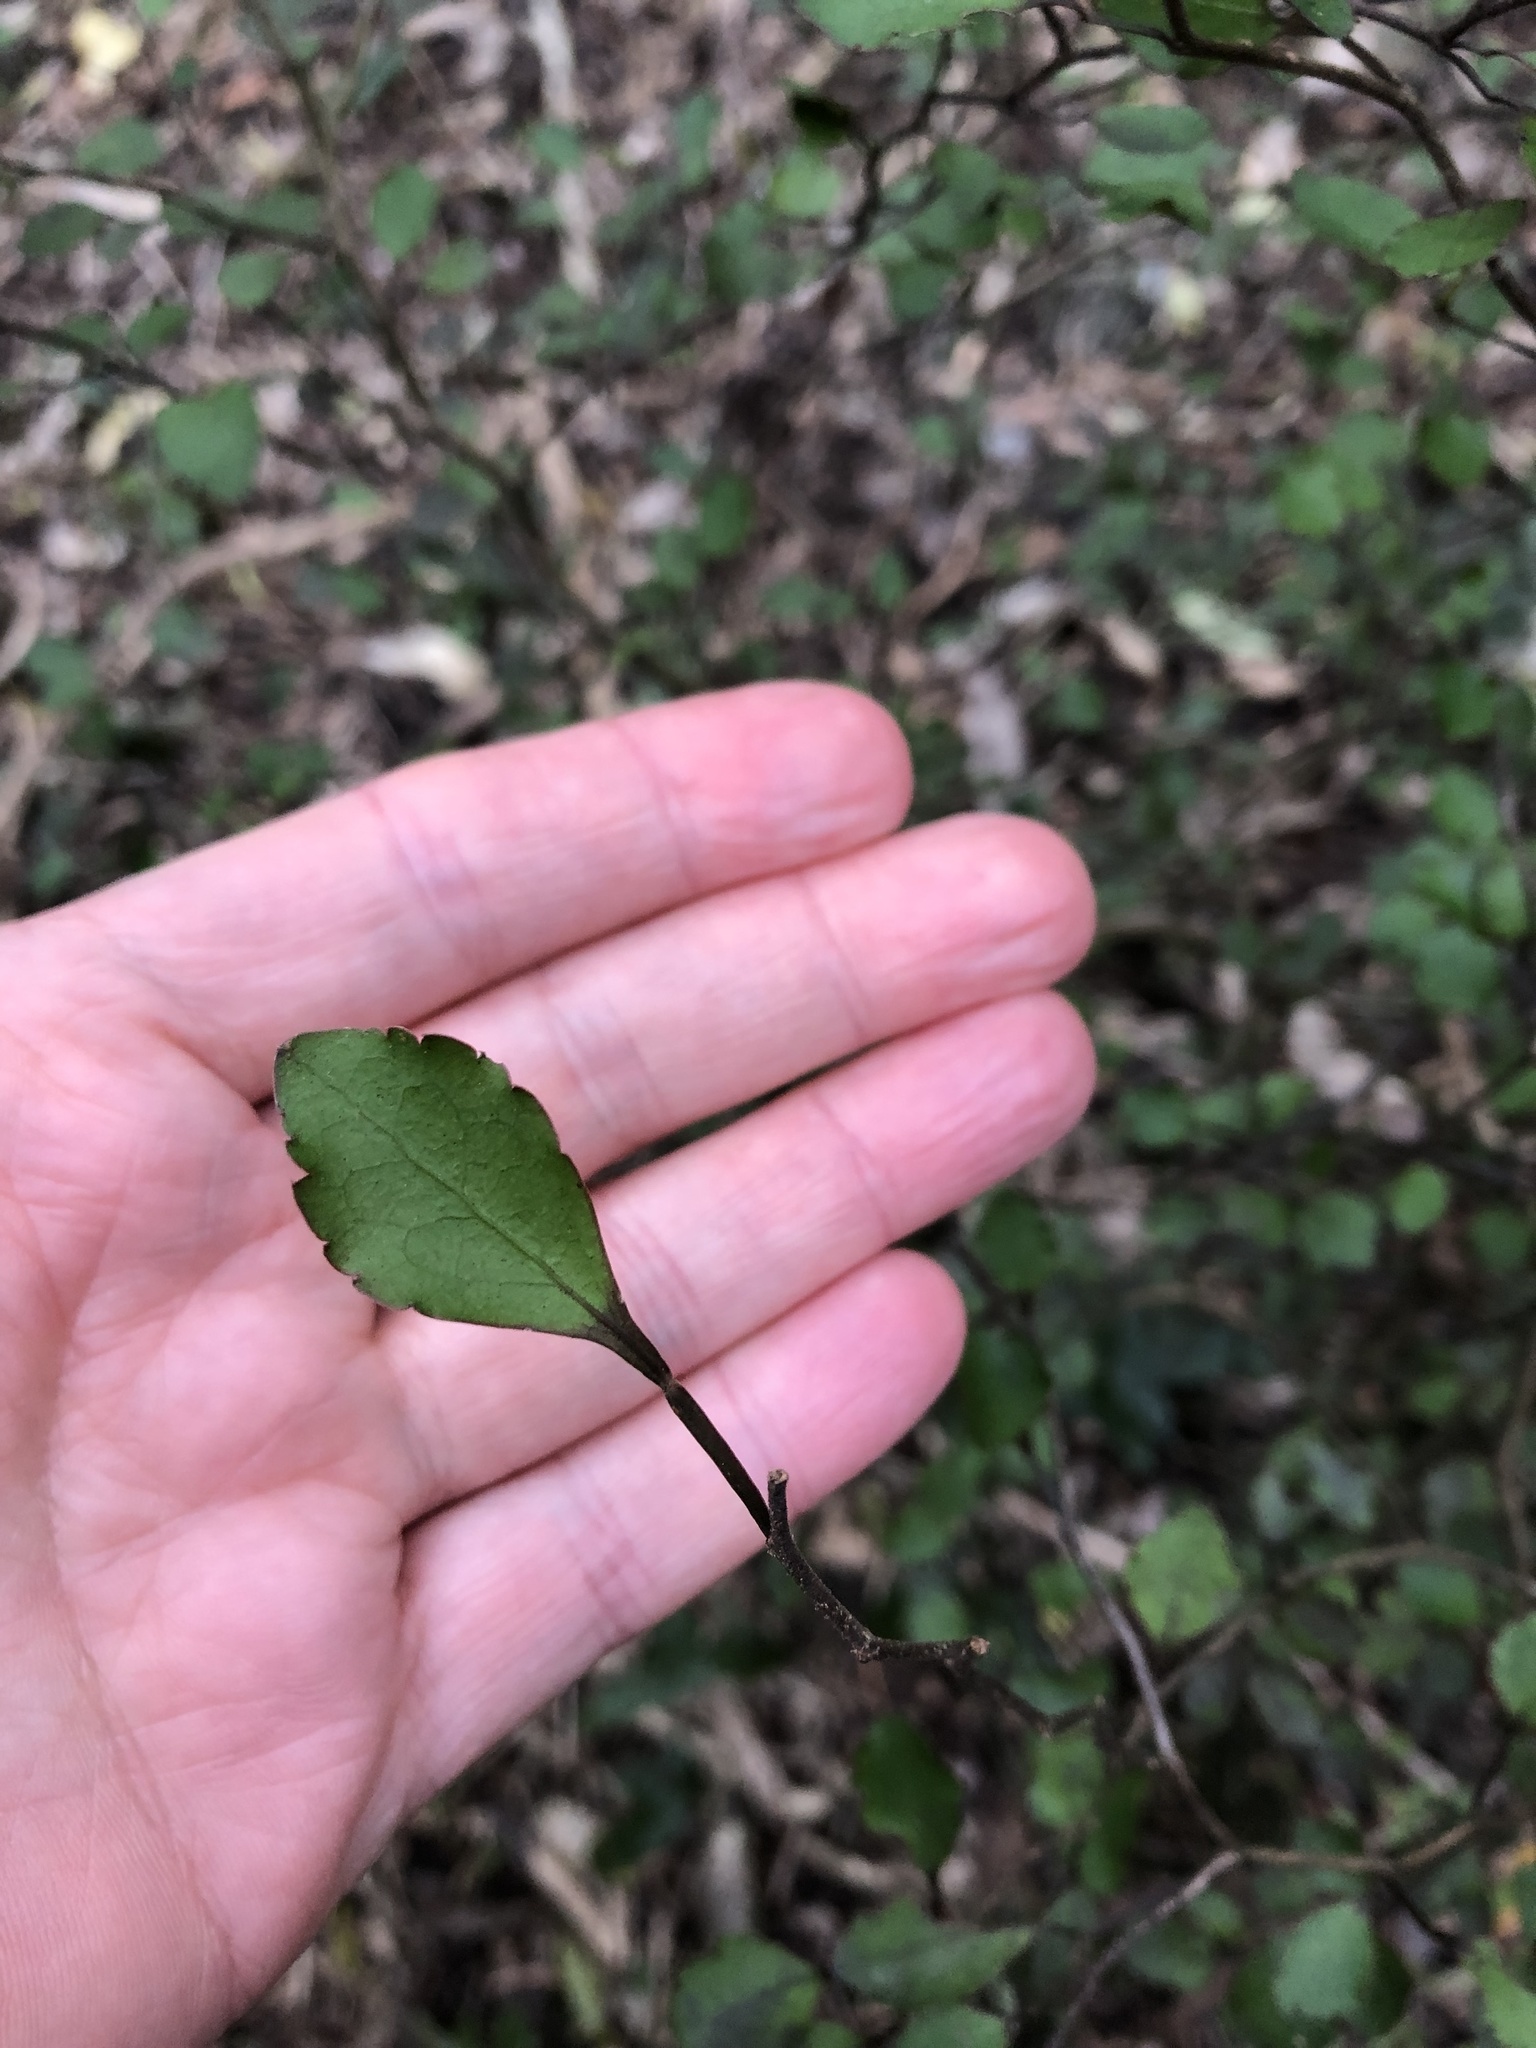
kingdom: Plantae
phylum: Tracheophyta
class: Magnoliopsida
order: Apiales
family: Araliaceae
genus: Raukaua
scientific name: Raukaua parvus
